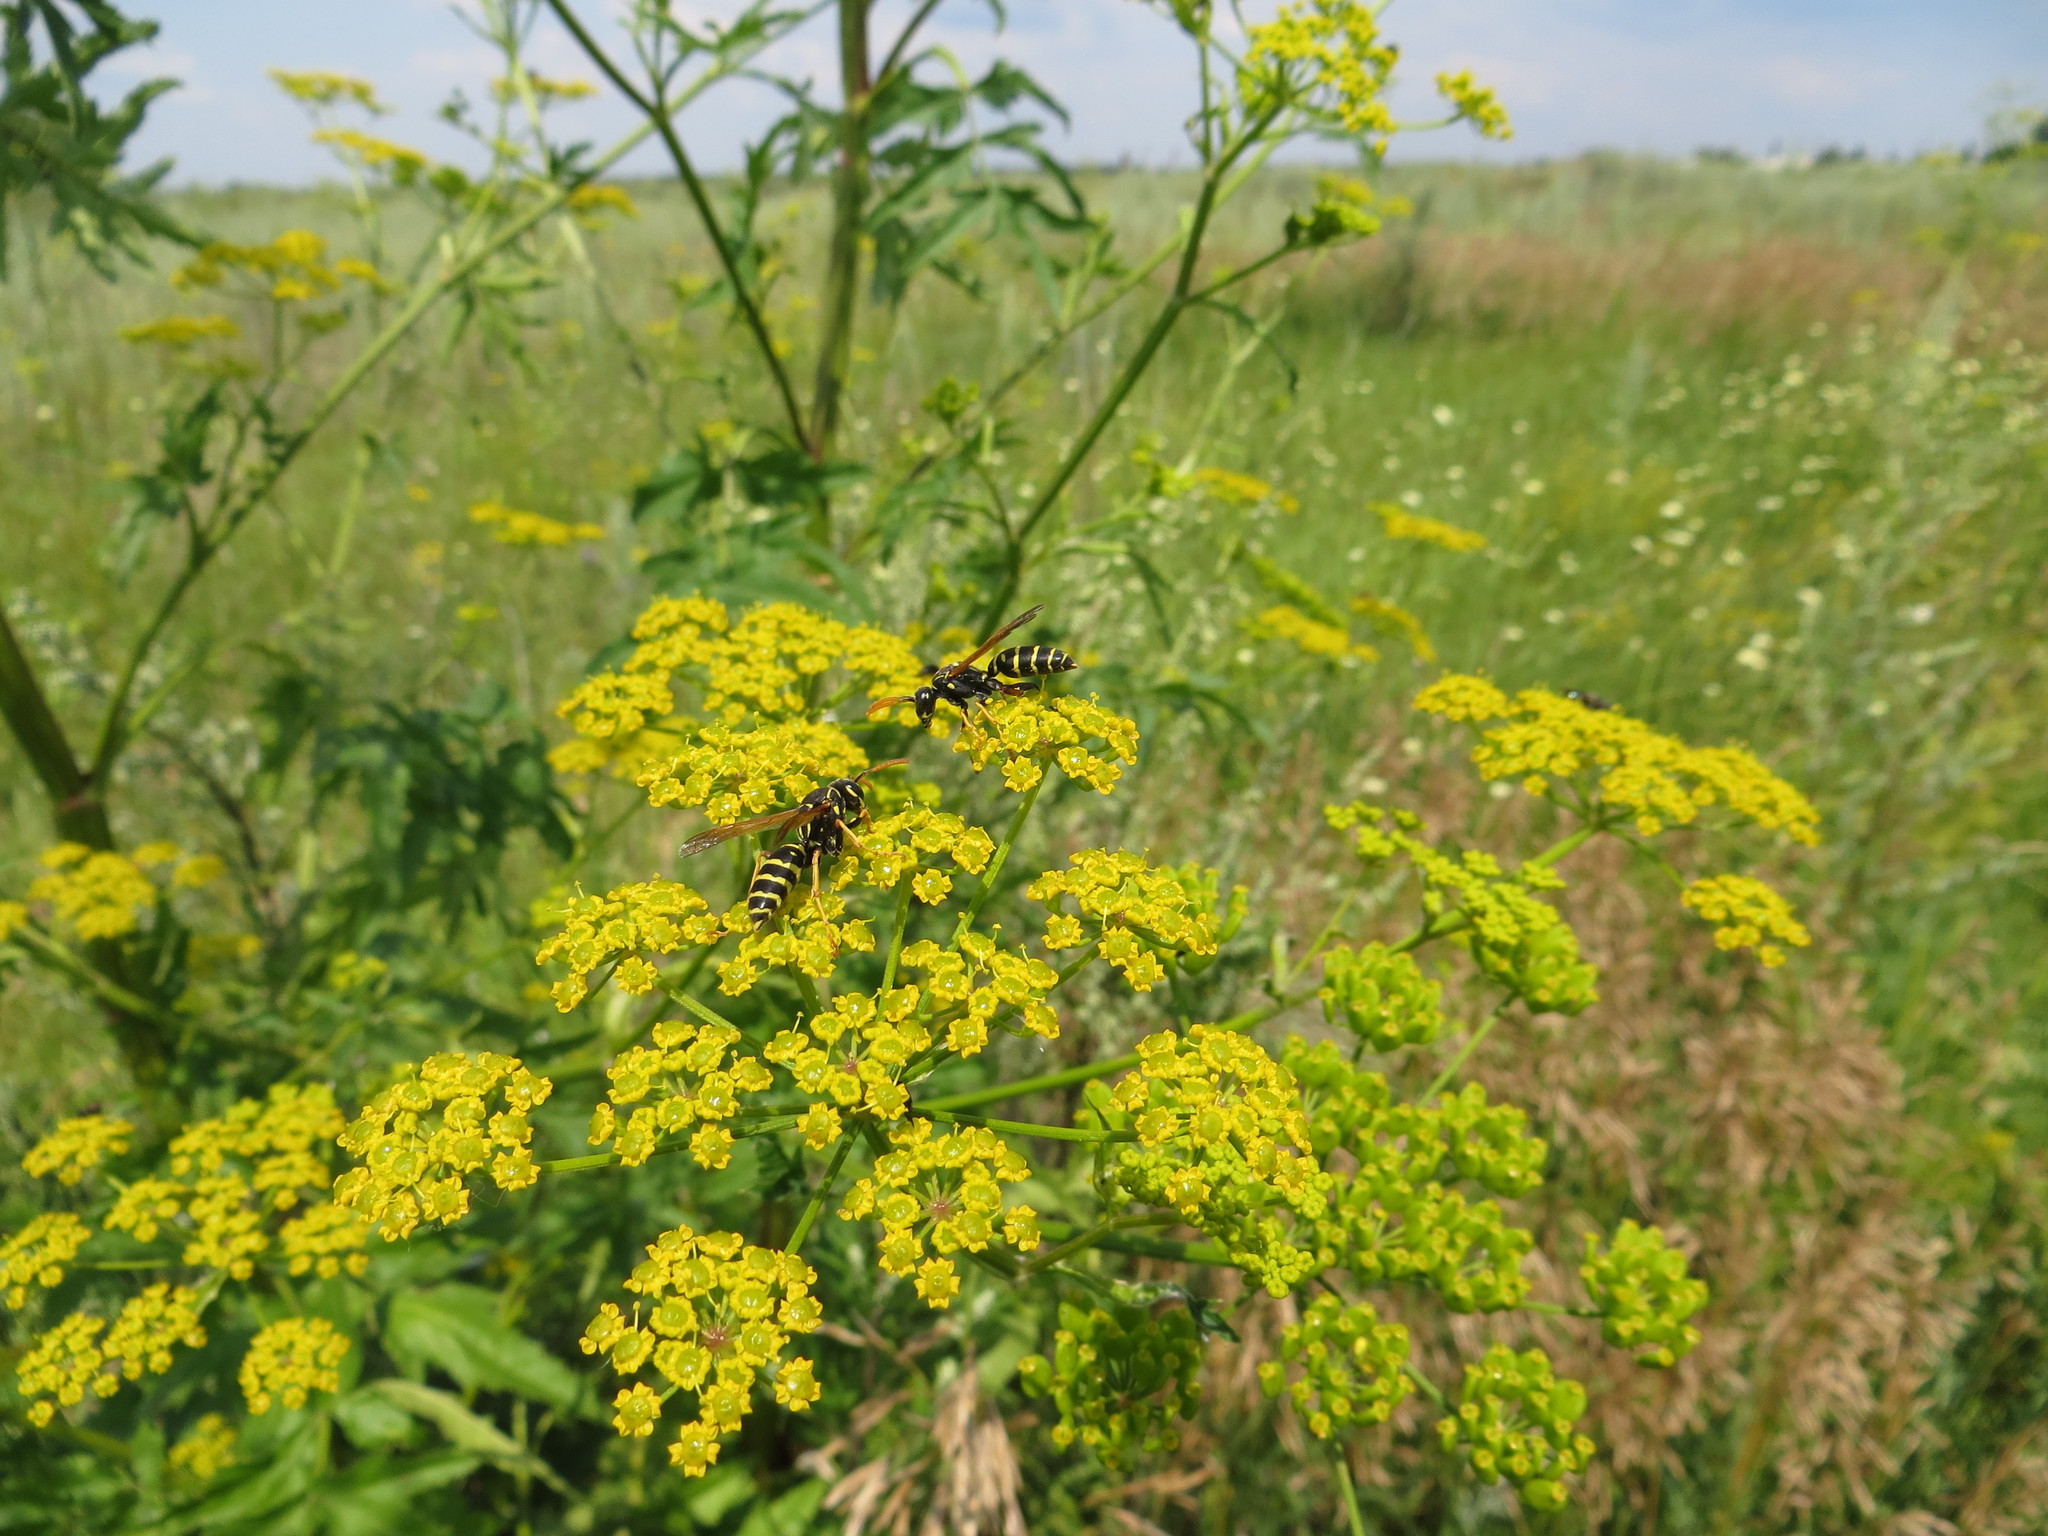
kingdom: Plantae
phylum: Tracheophyta
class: Magnoliopsida
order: Apiales
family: Apiaceae
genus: Pastinaca
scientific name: Pastinaca sativa
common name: Wild parsnip
